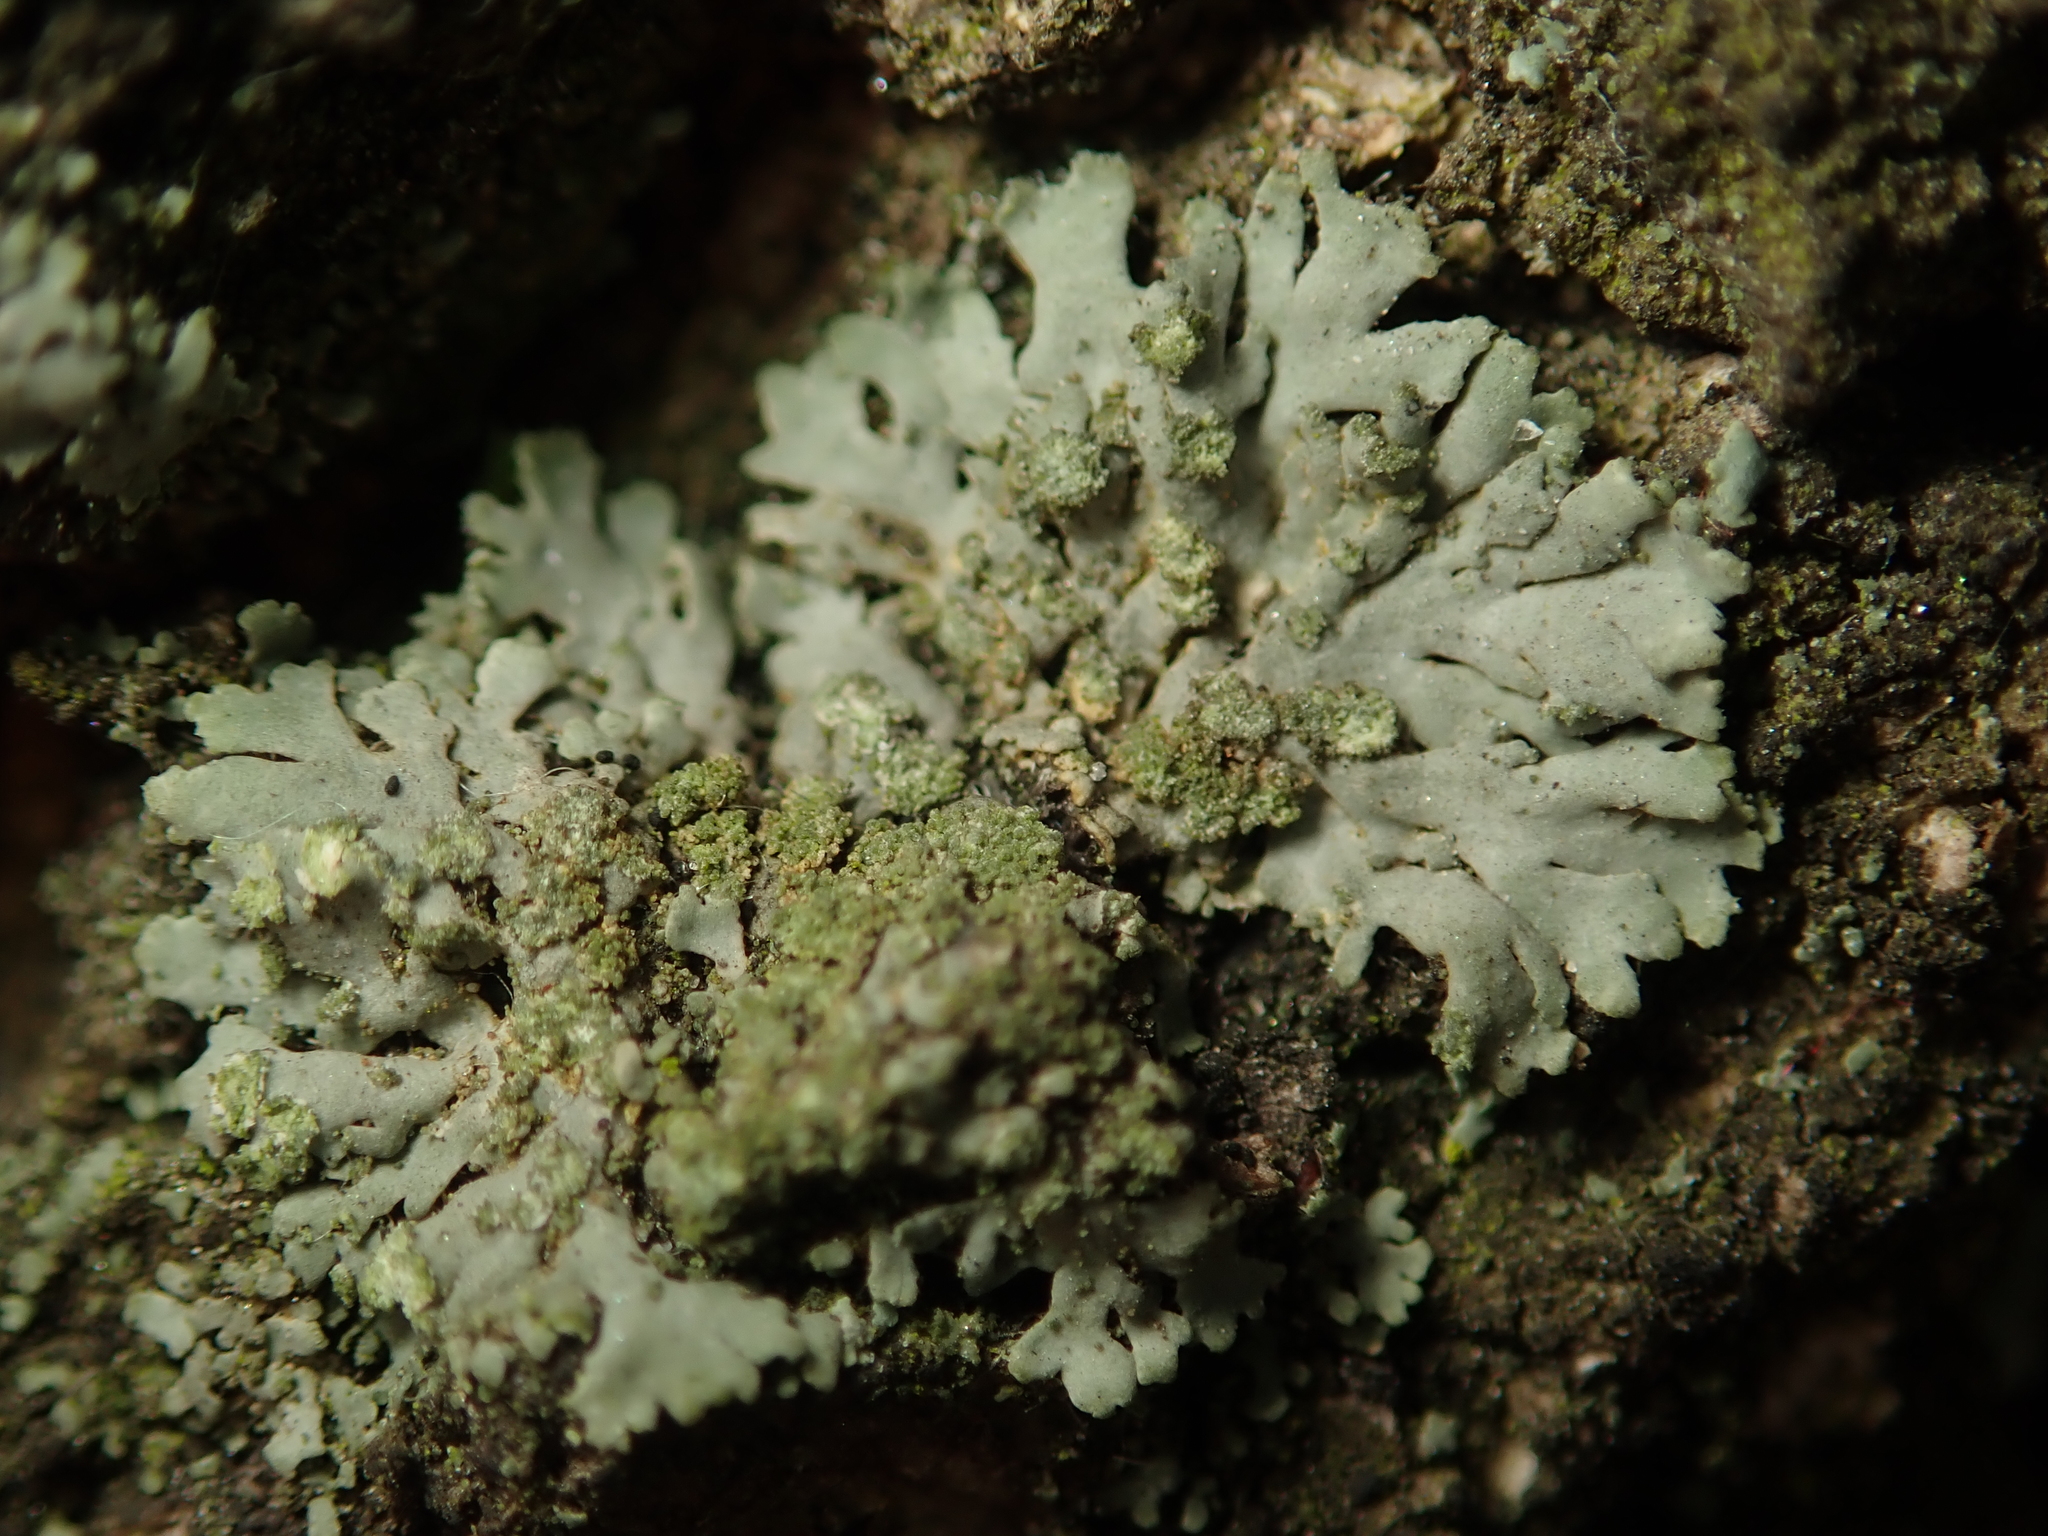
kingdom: Fungi
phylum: Ascomycota
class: Lecanoromycetes
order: Caliciales
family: Physciaceae
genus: Phaeophyscia
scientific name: Phaeophyscia orbicularis
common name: Mealy shadow lichen
